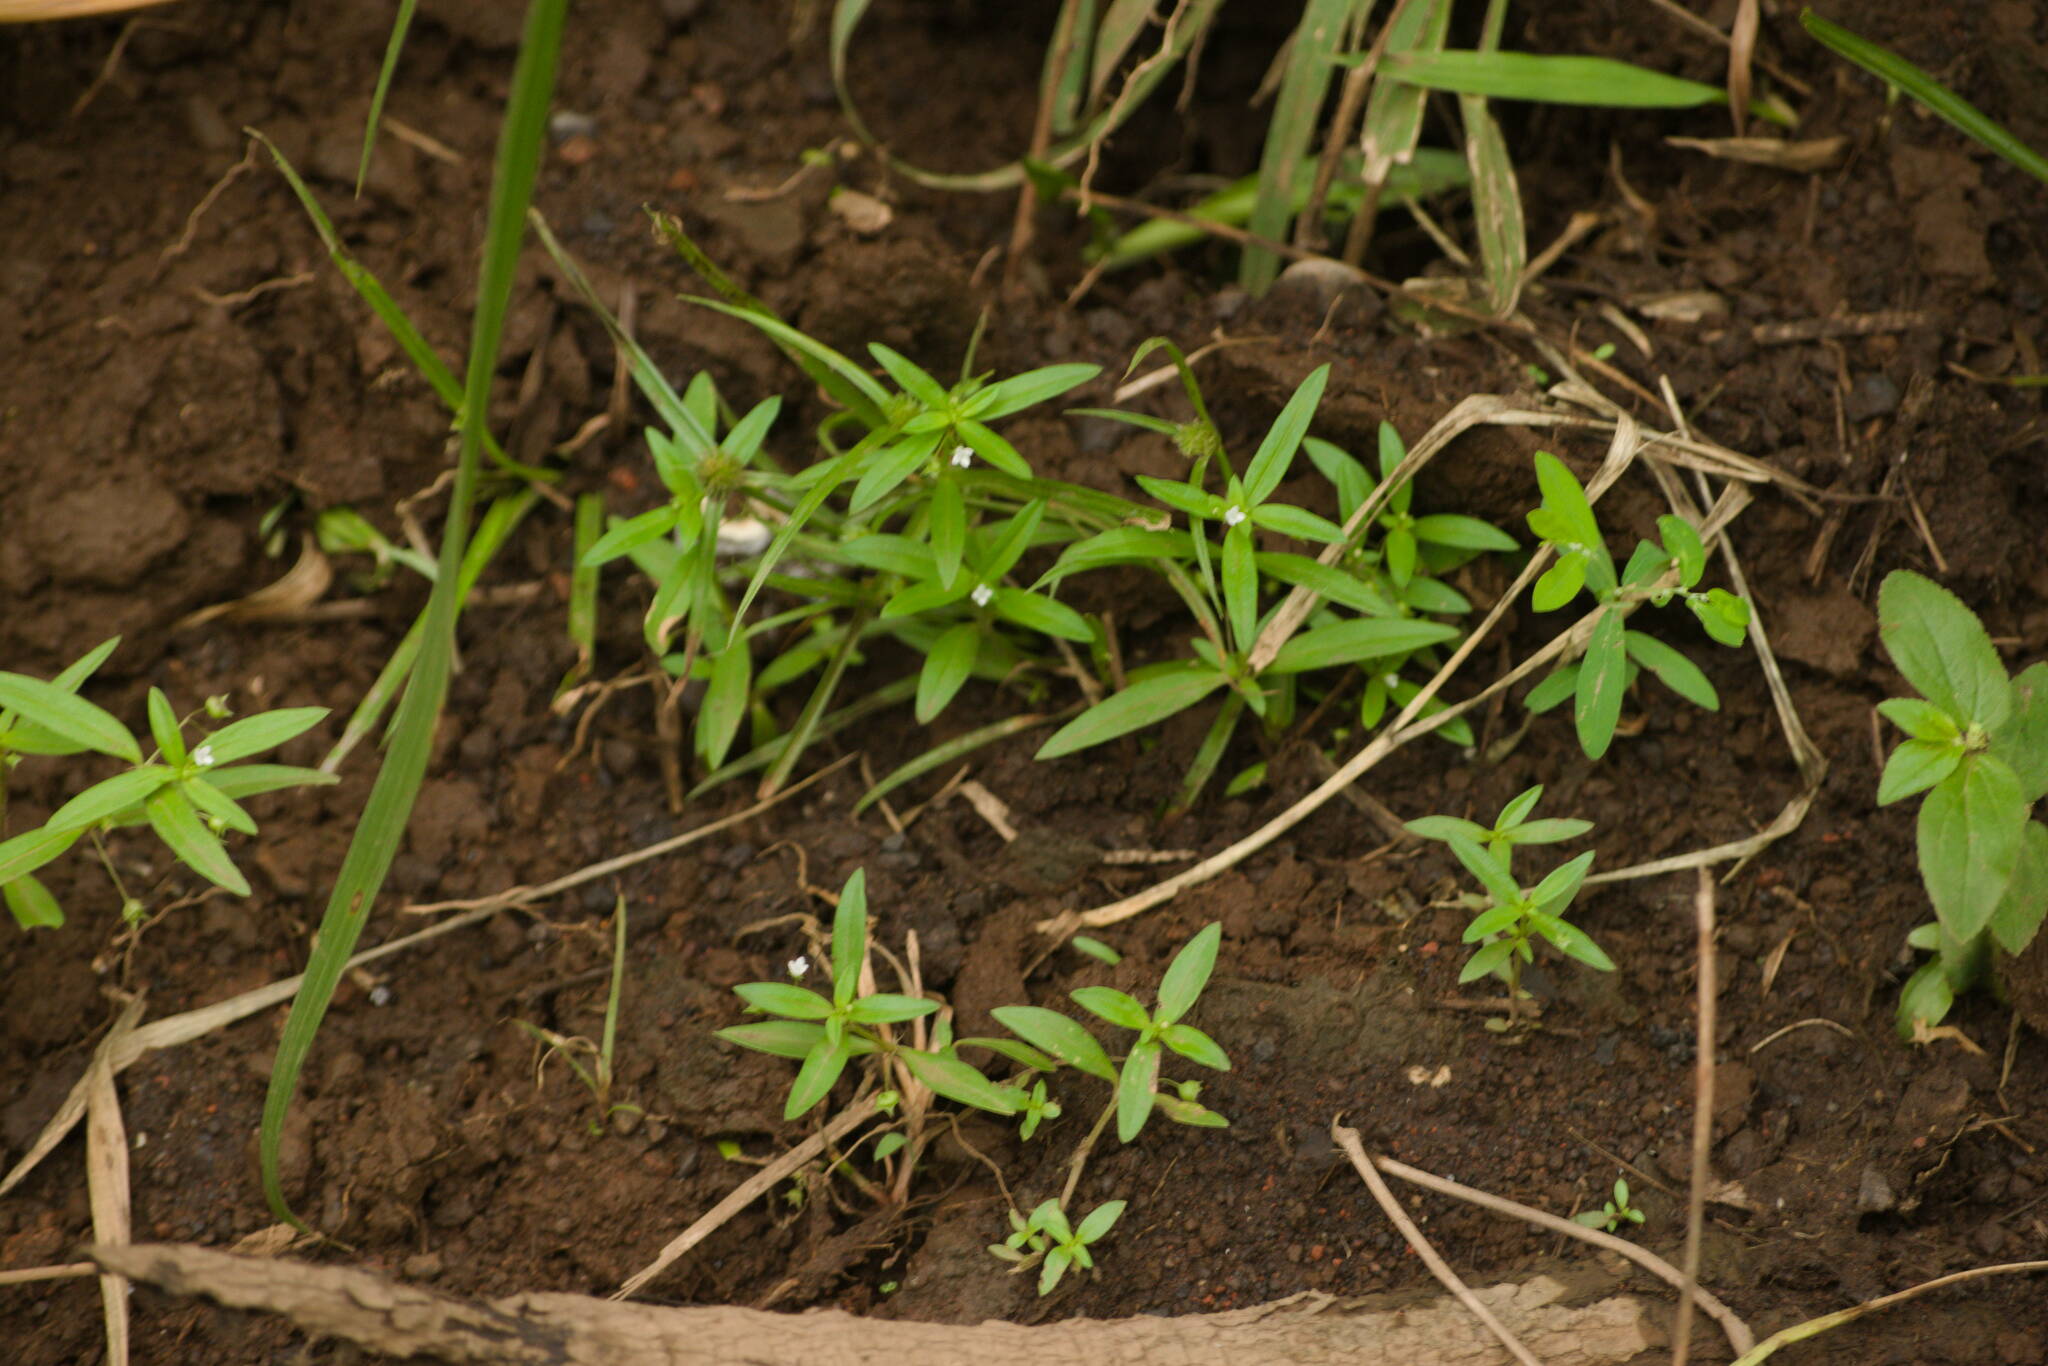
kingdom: Plantae
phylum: Tracheophyta
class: Magnoliopsida
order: Gentianales
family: Rubiaceae
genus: Oldenlandia
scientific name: Oldenlandia corymbosa
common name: Flat-top mille graines
